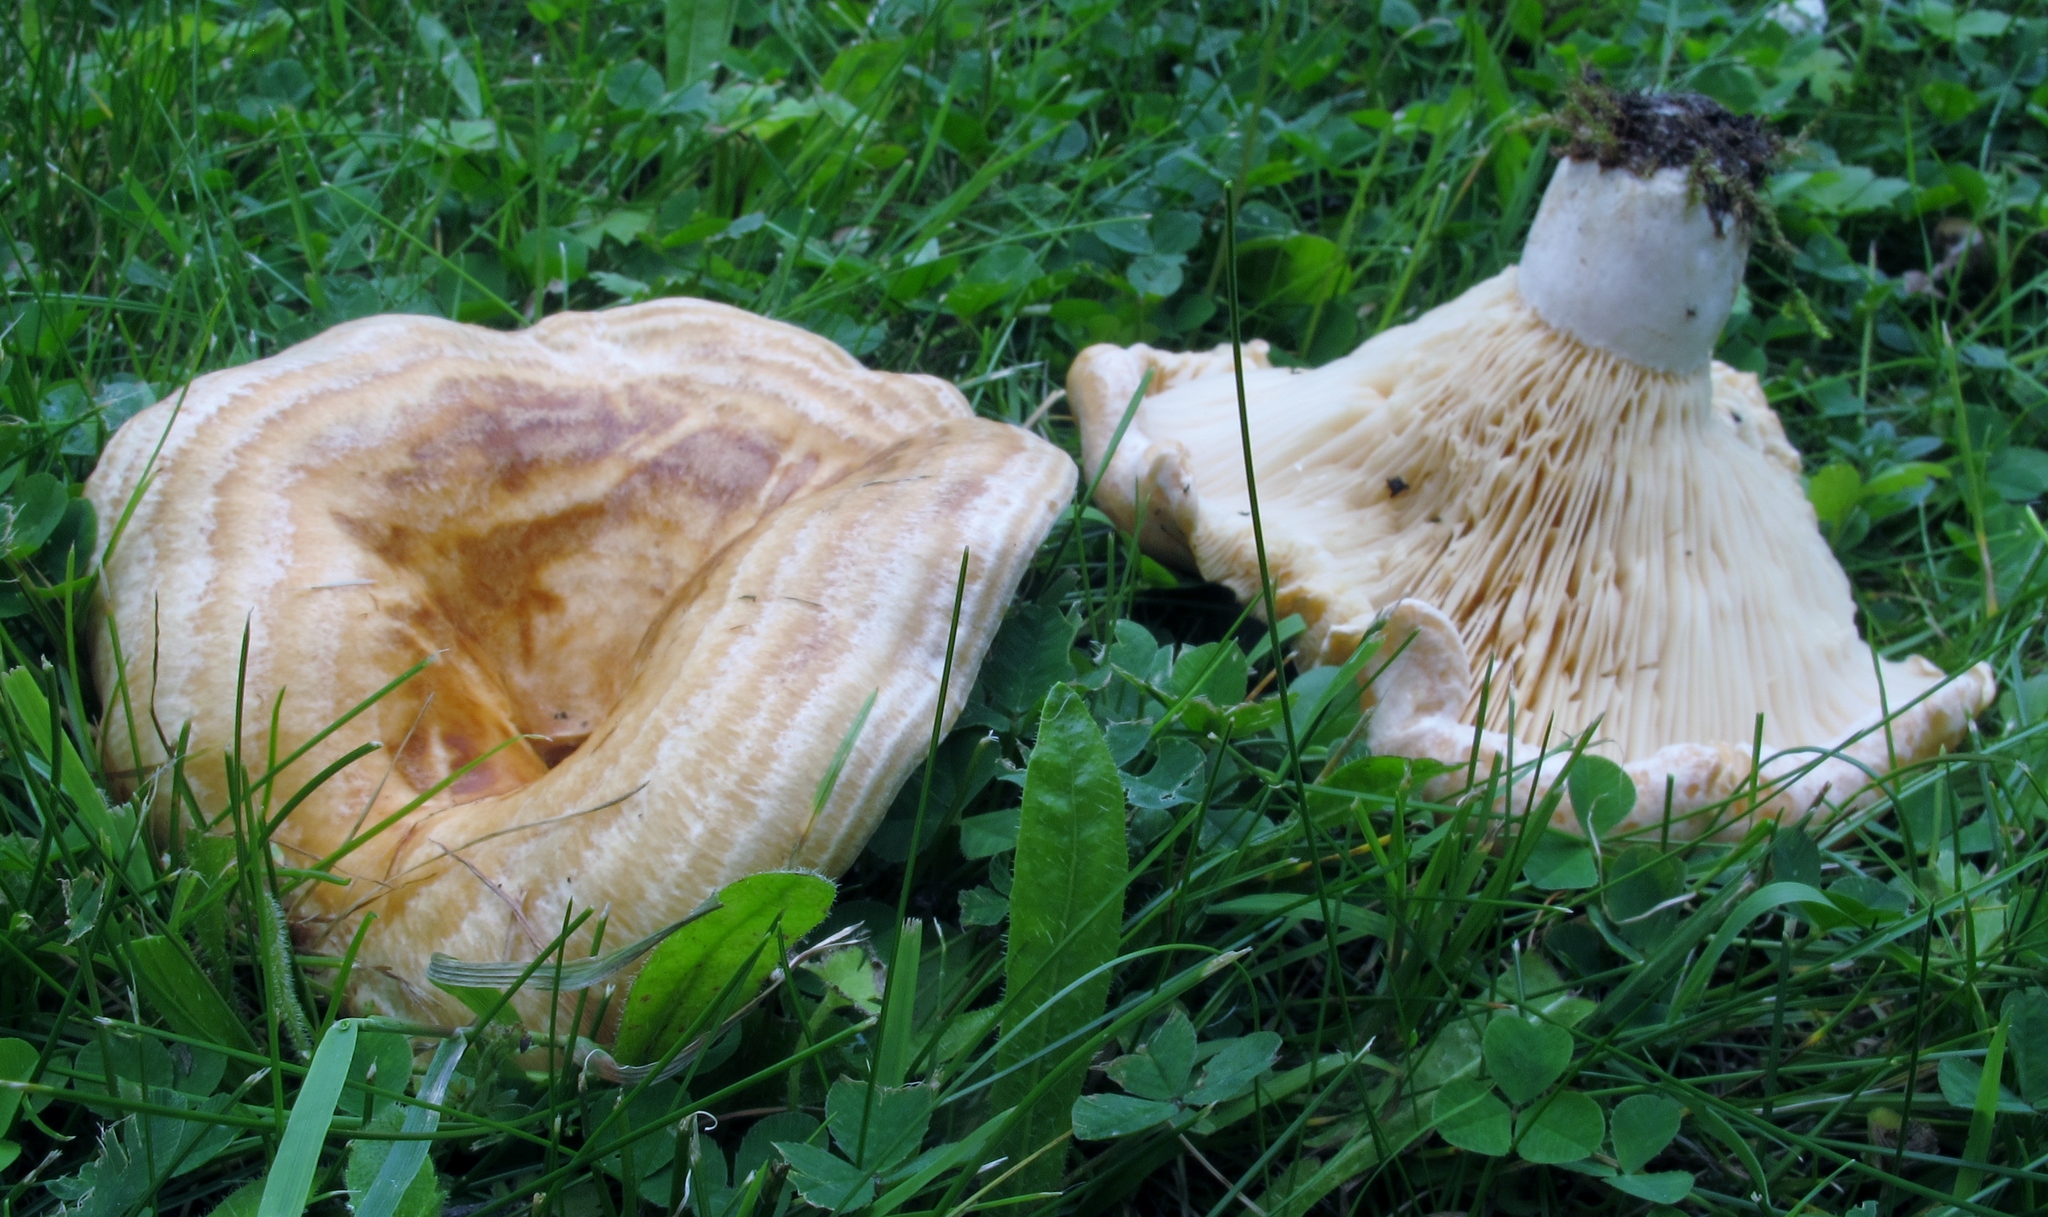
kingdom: Fungi
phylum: Basidiomycota
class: Agaricomycetes
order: Russulales
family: Russulaceae
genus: Lactarius
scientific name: Lactarius psammicola
